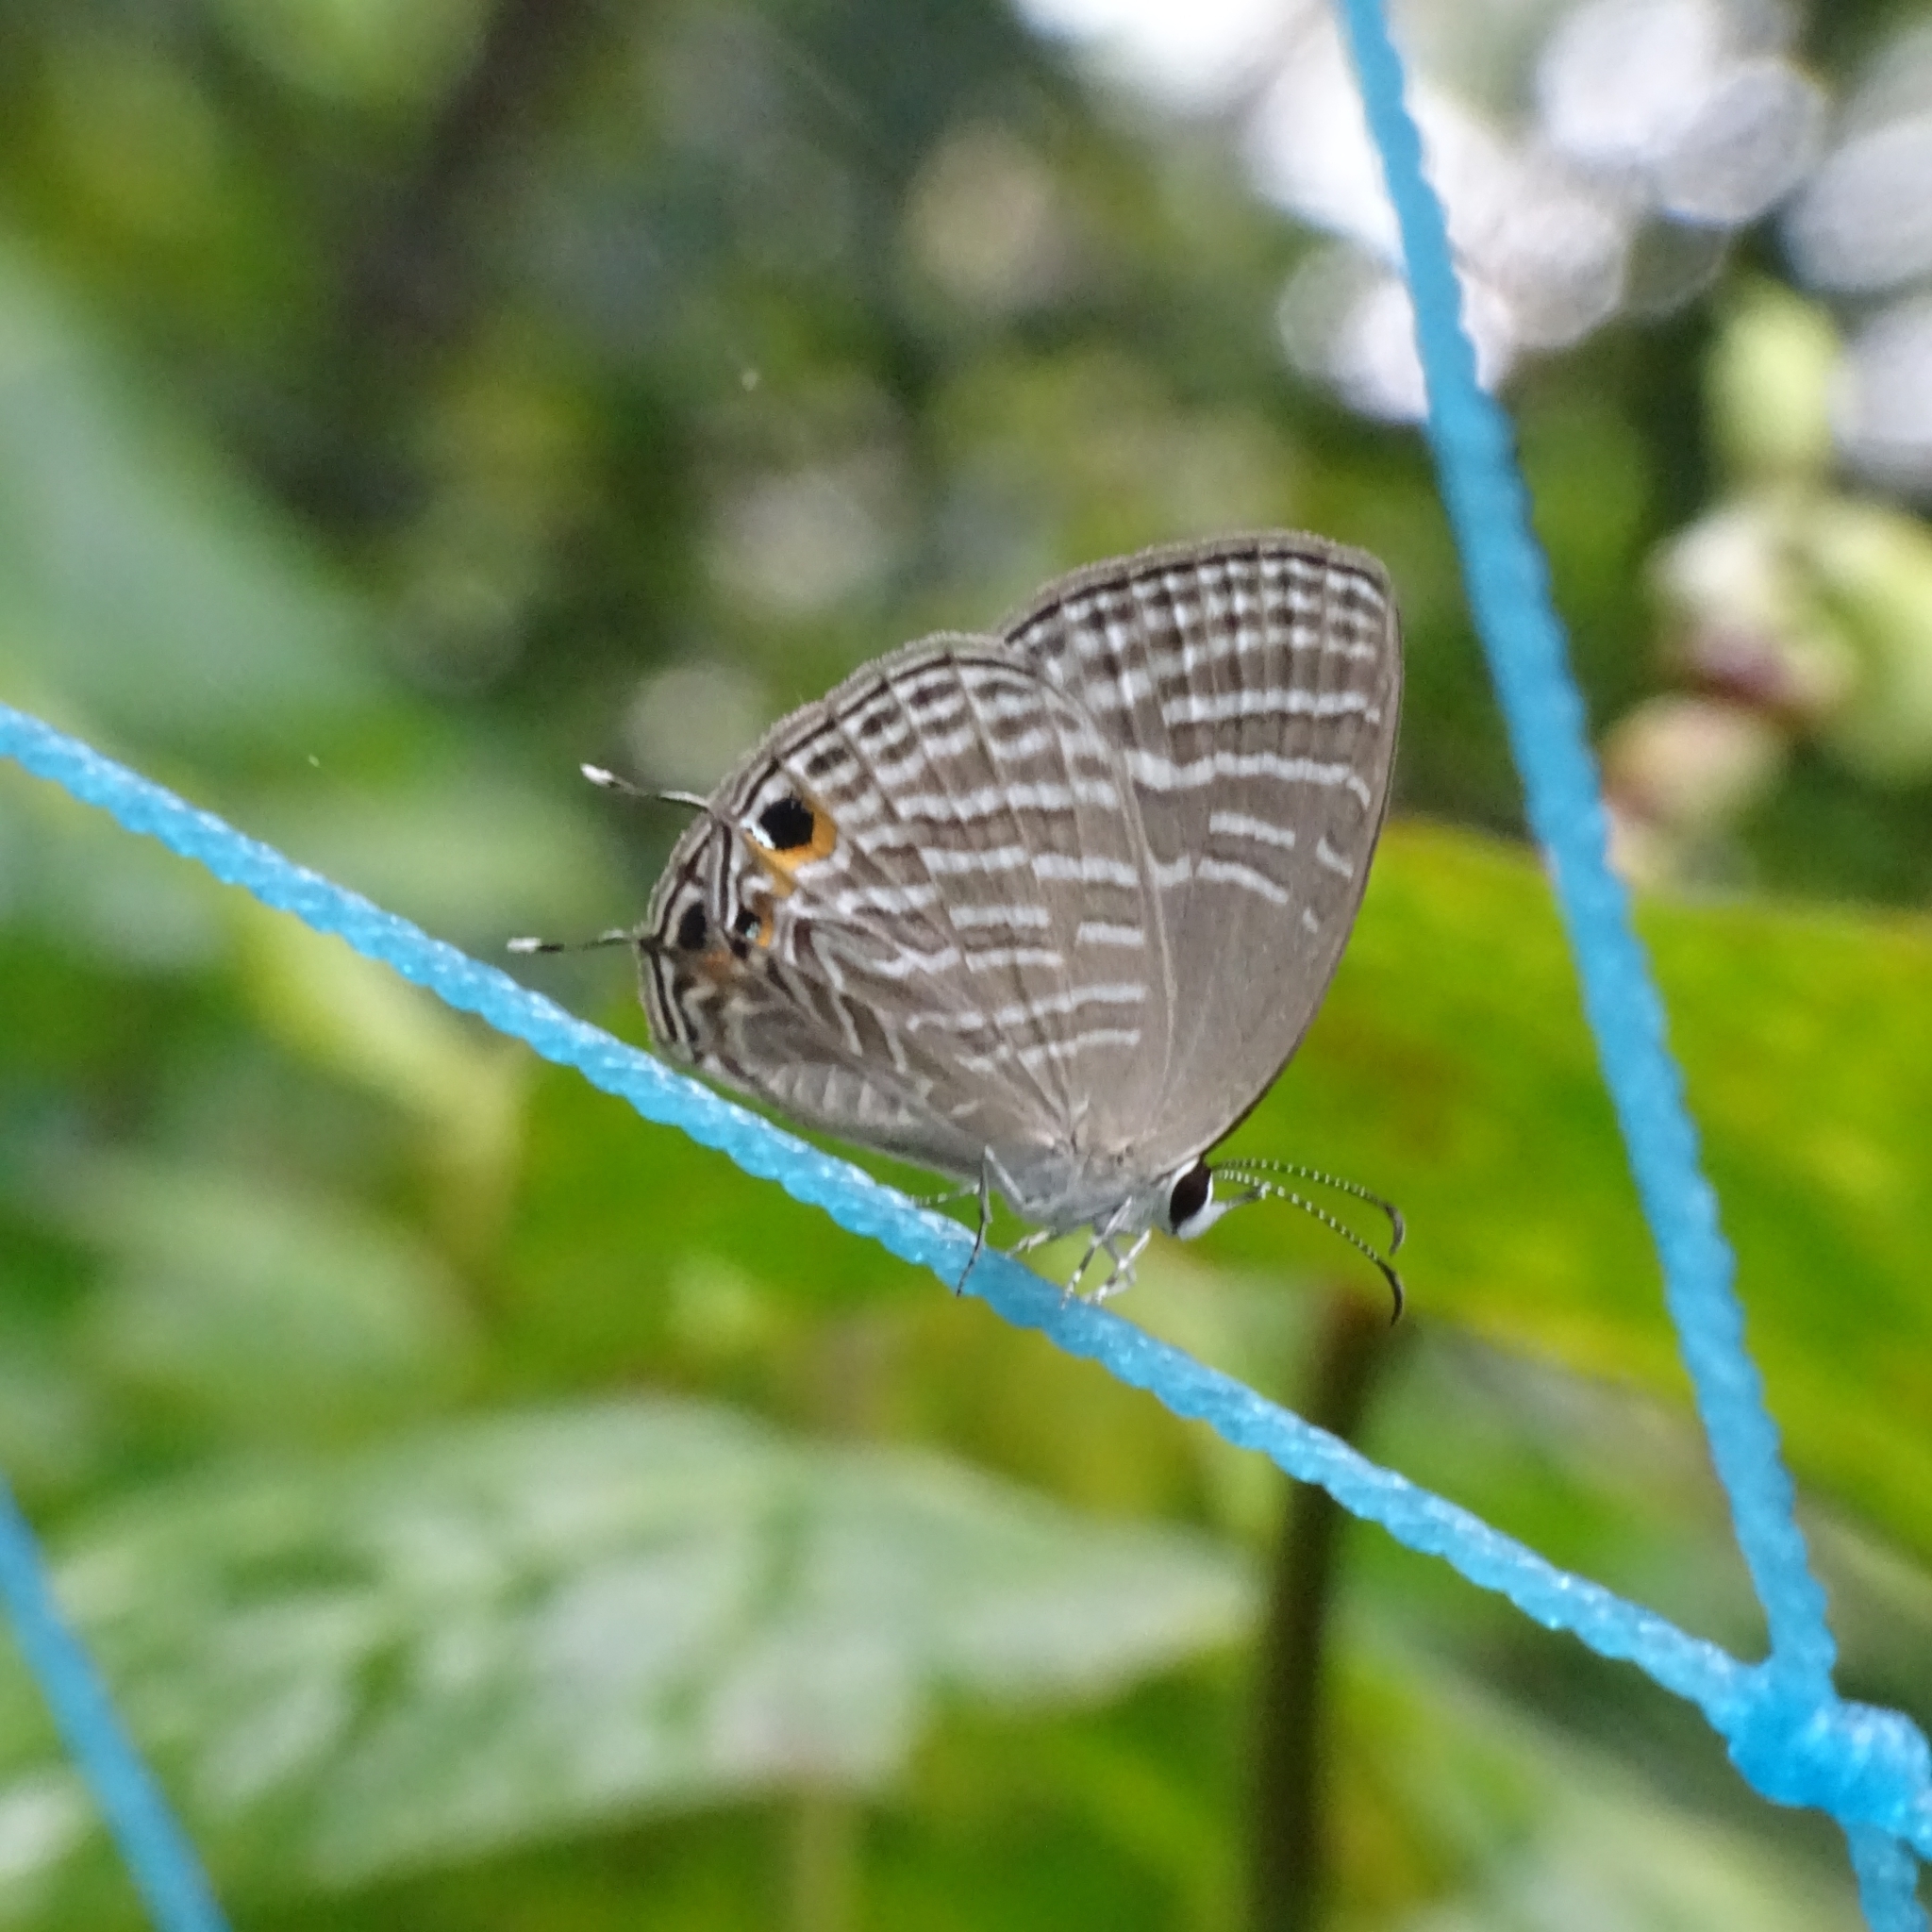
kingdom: Animalia
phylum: Arthropoda
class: Insecta
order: Lepidoptera
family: Lycaenidae
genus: Jamides
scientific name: Jamides celeno
